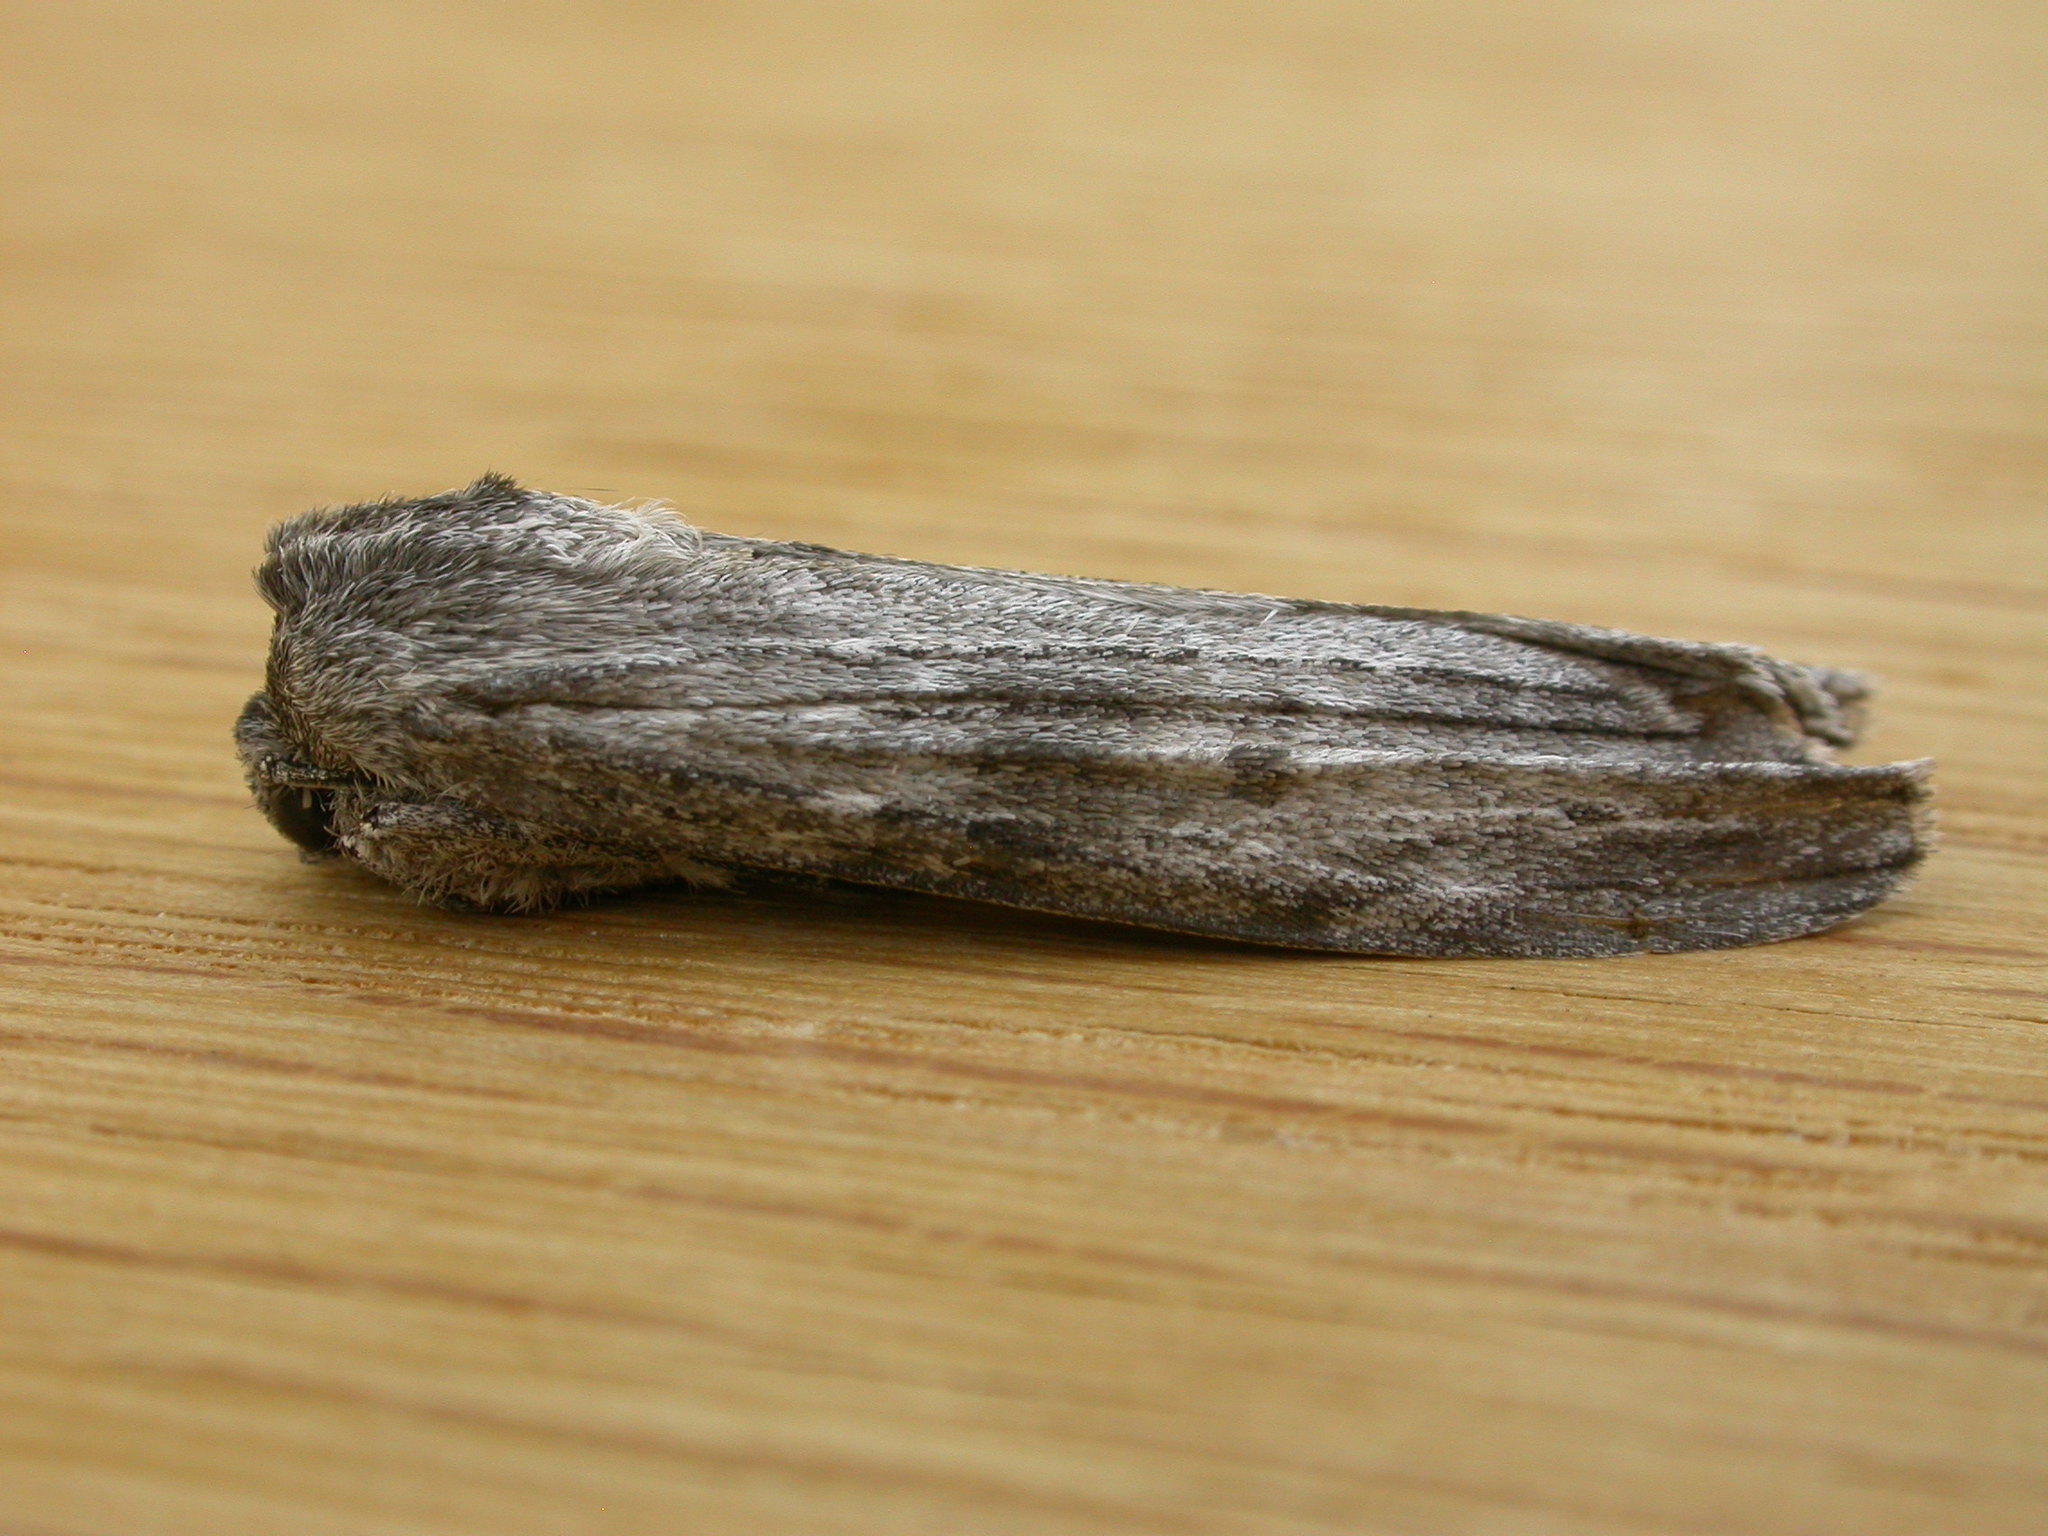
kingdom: Animalia
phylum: Arthropoda
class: Insecta
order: Lepidoptera
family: Geometridae
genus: Capusa
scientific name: Capusa senilis
